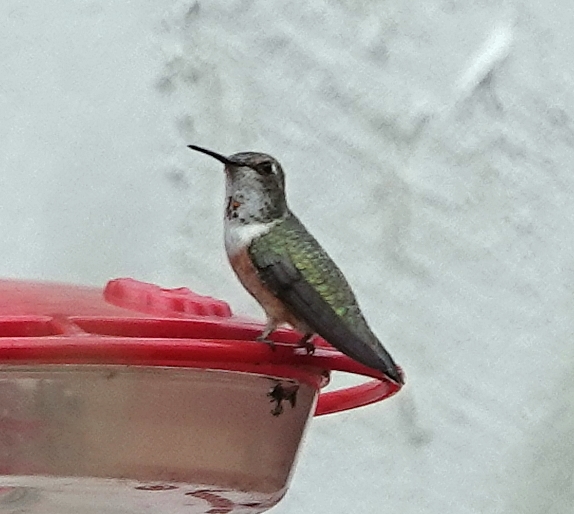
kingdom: Animalia
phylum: Chordata
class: Aves
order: Apodiformes
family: Trochilidae
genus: Selasphorus
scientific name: Selasphorus rufus
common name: Rufous hummingbird
